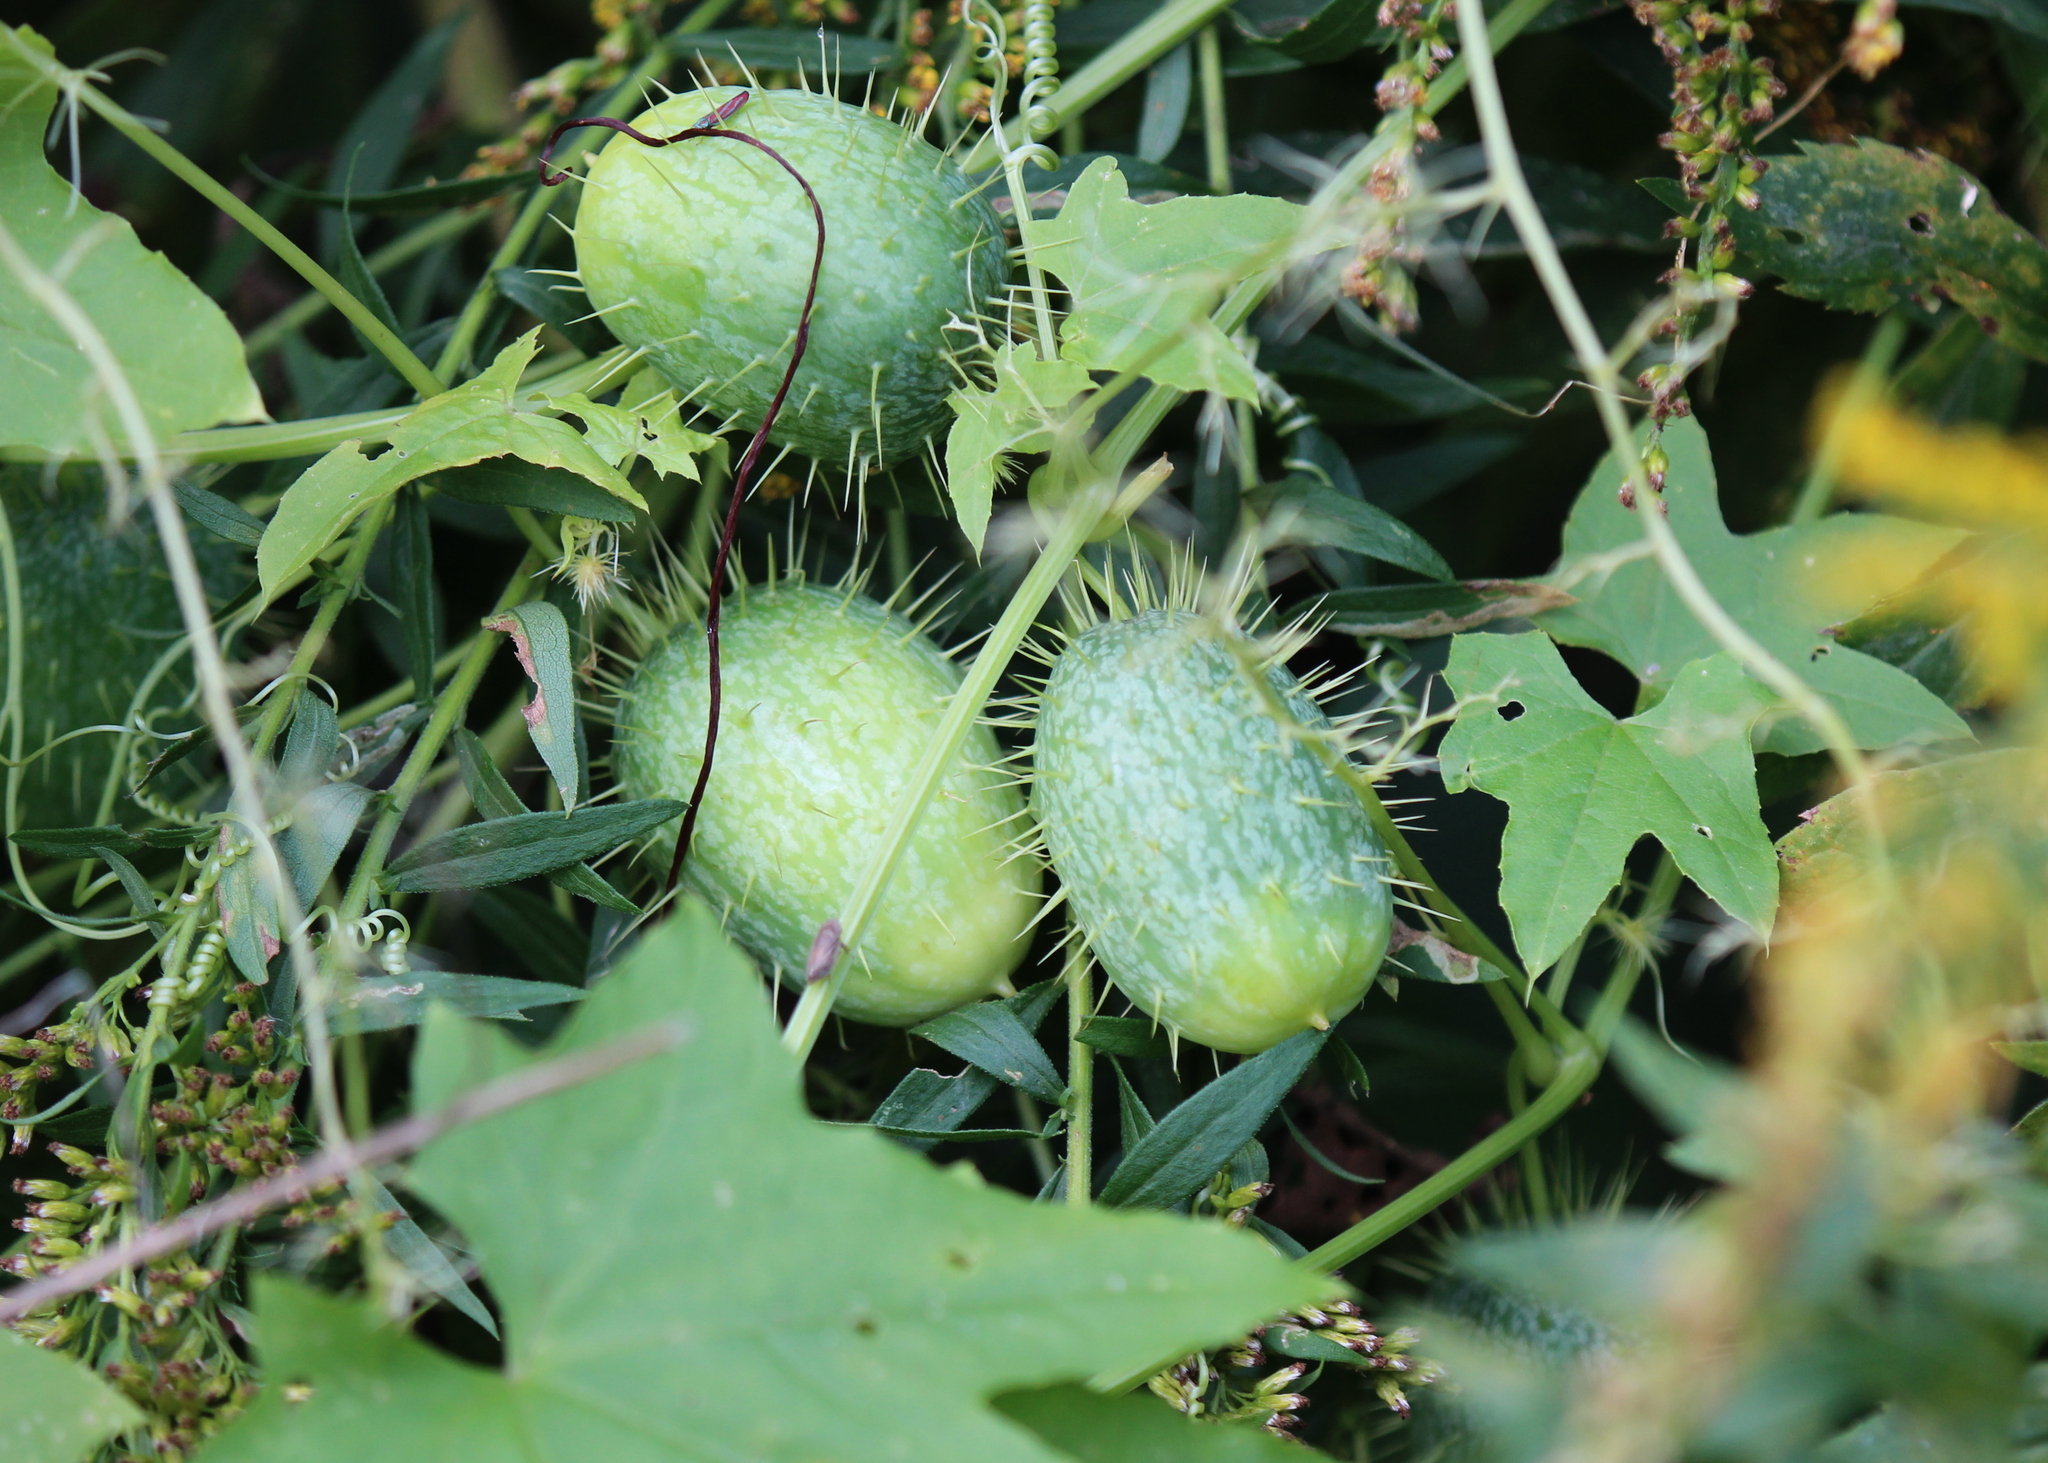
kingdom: Plantae
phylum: Tracheophyta
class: Magnoliopsida
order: Cucurbitales
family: Cucurbitaceae
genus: Echinocystis
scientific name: Echinocystis lobata
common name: Wild cucumber
